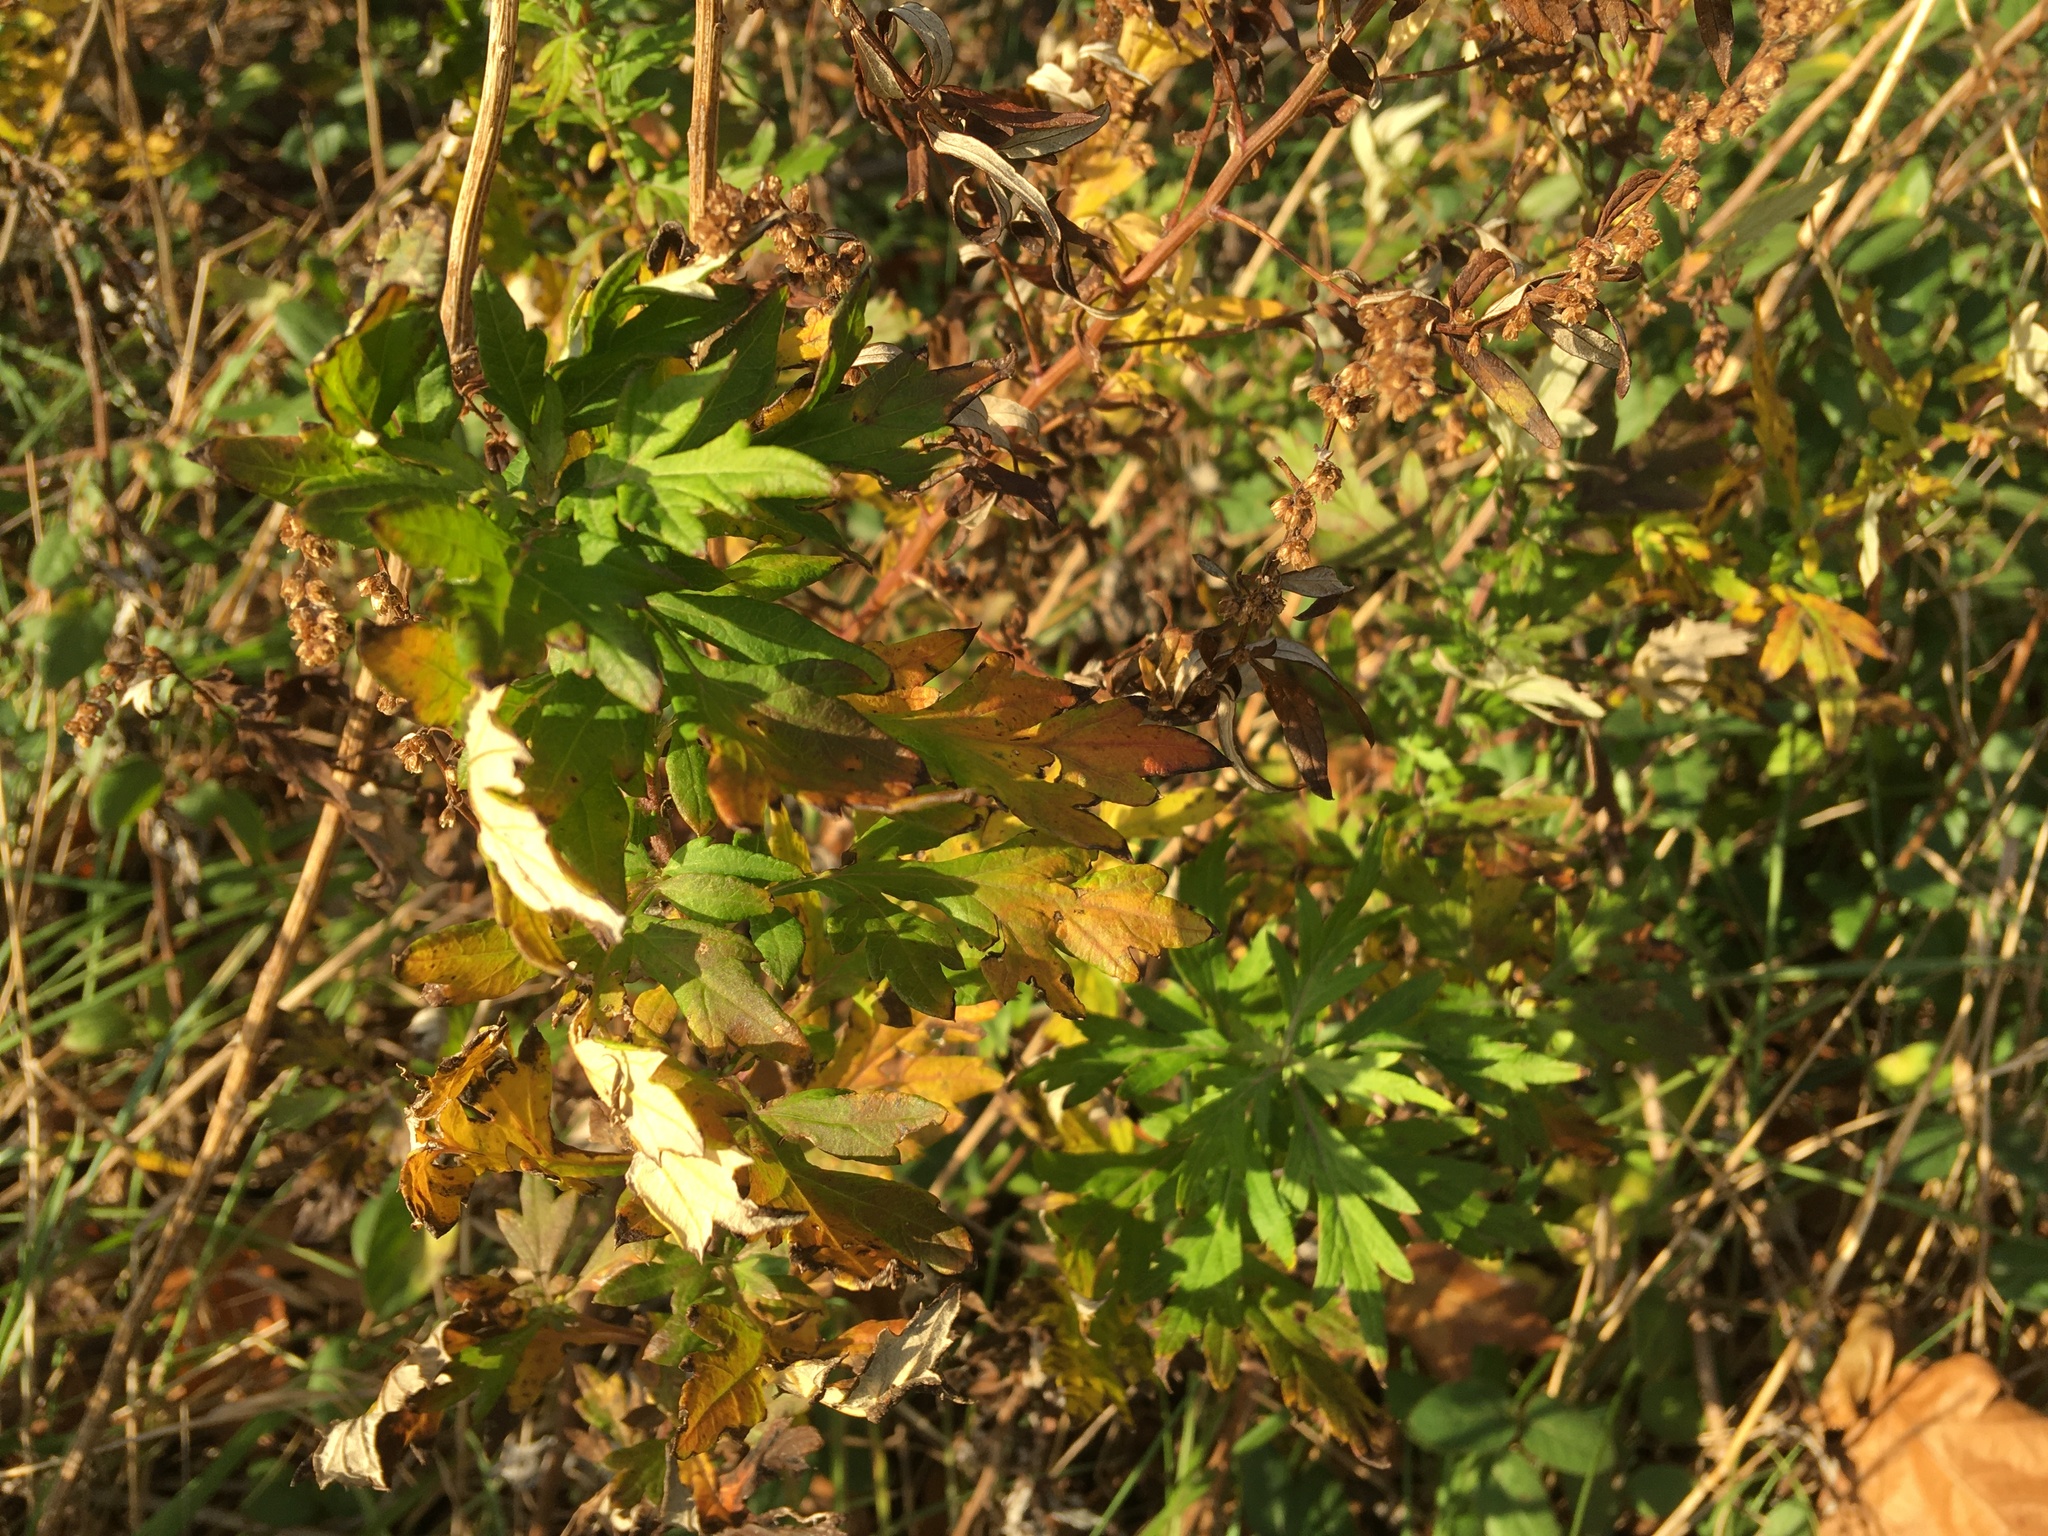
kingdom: Plantae
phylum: Tracheophyta
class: Magnoliopsida
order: Asterales
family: Asteraceae
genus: Artemisia
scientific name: Artemisia vulgaris
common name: Mugwort
